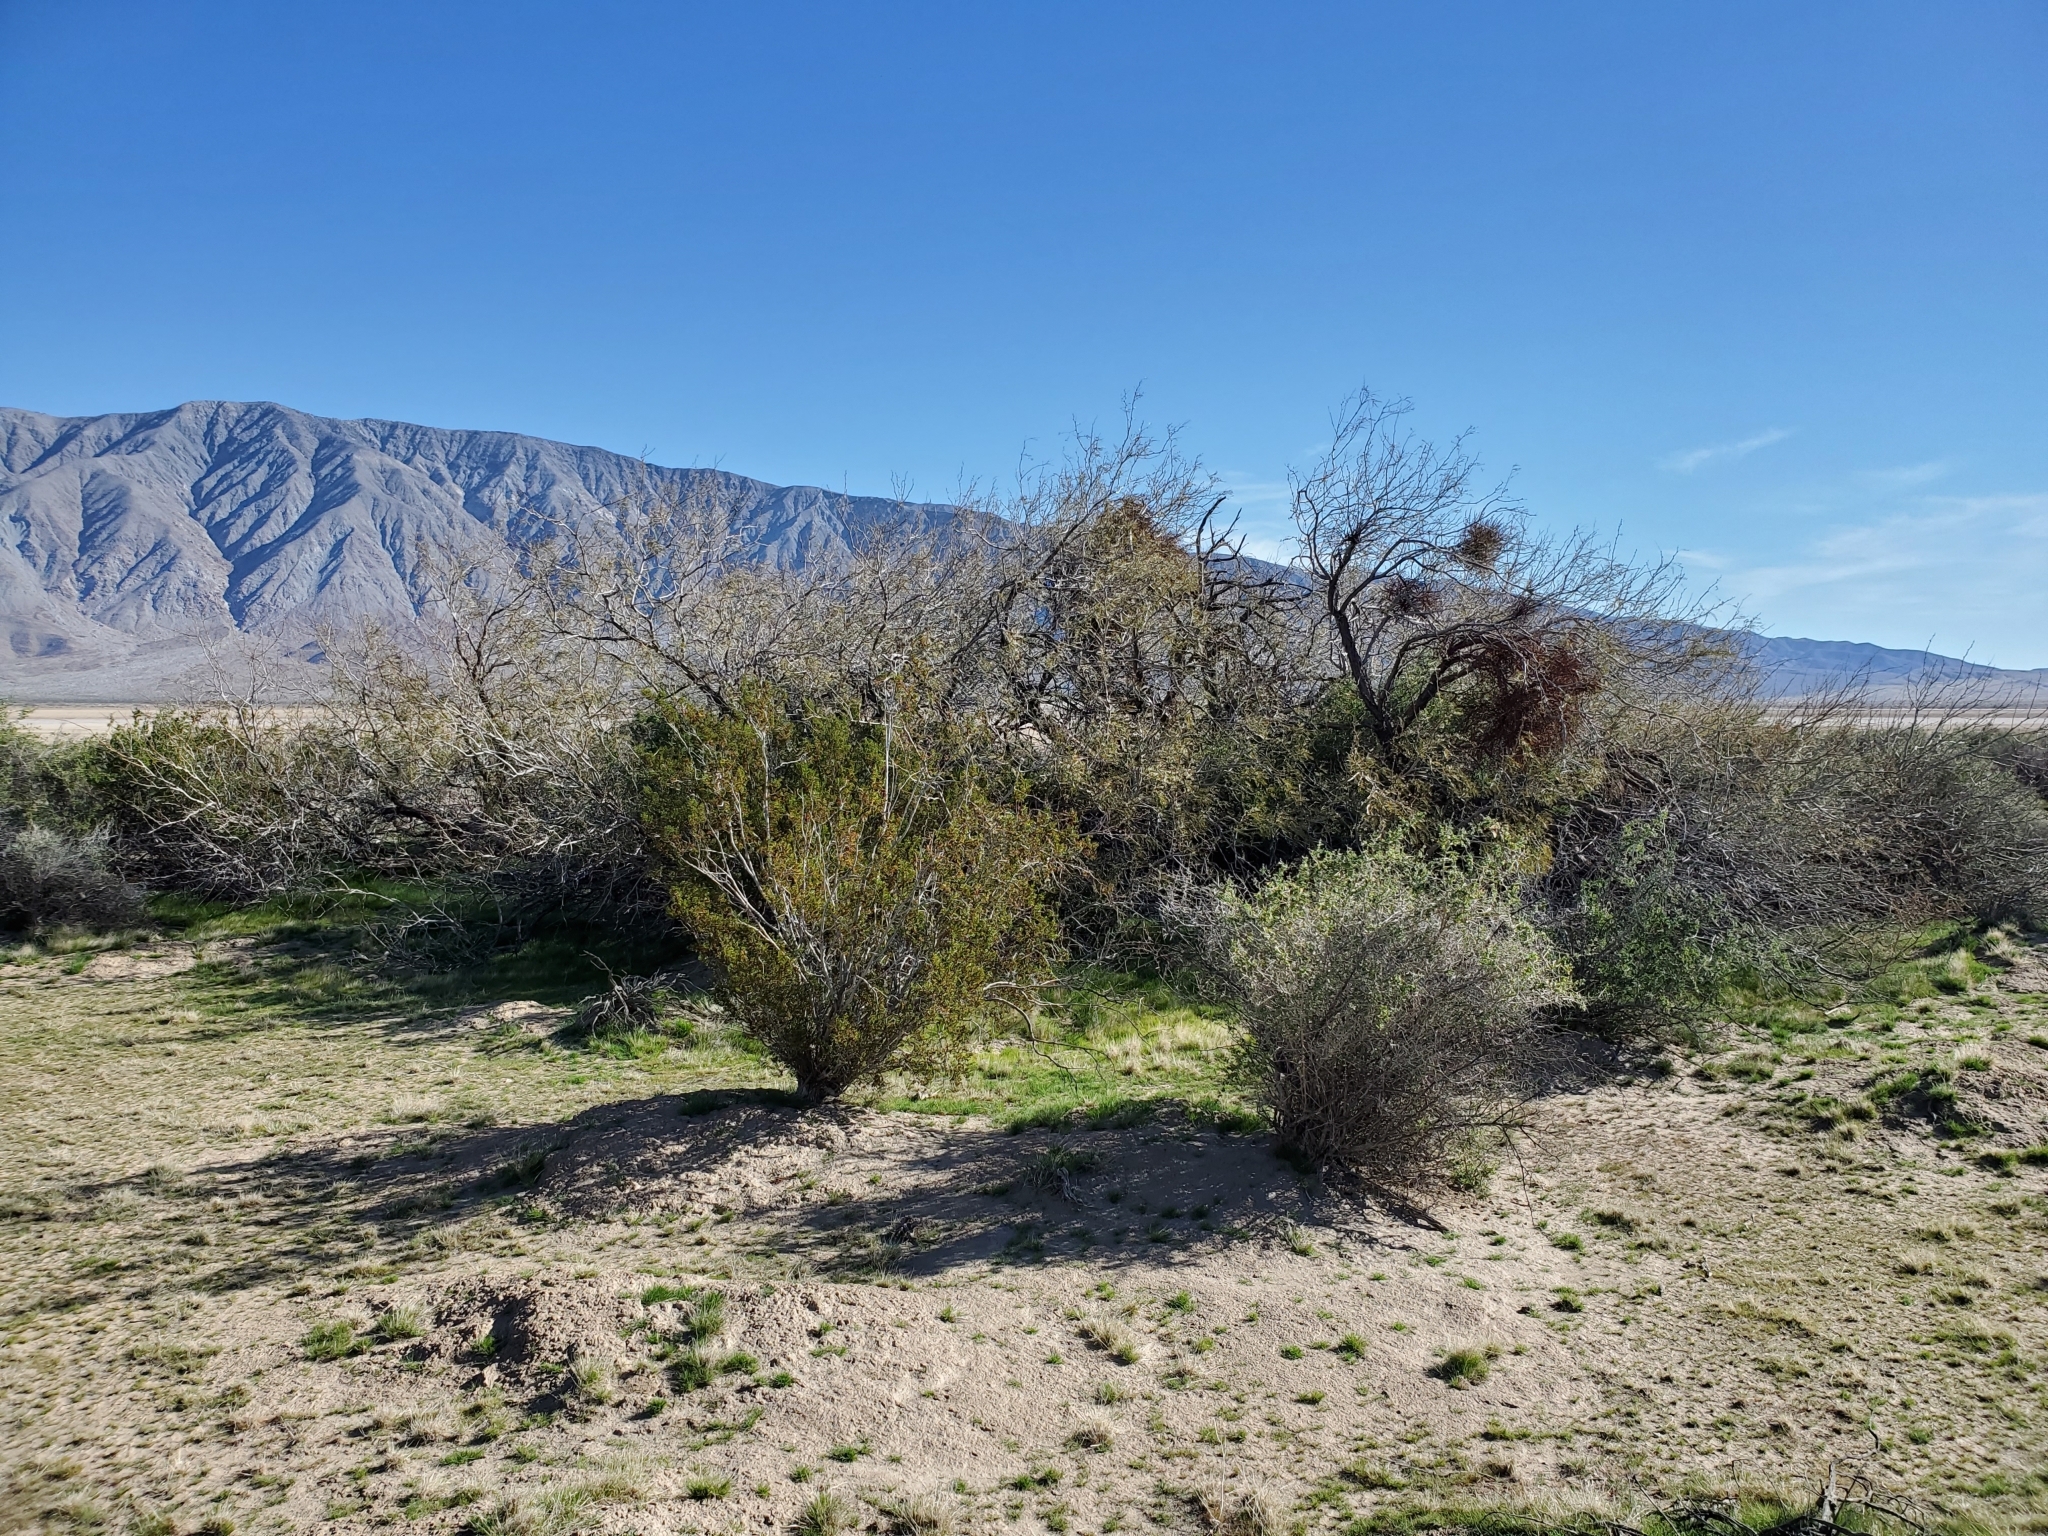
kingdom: Plantae
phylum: Tracheophyta
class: Magnoliopsida
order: Fabales
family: Fabaceae
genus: Prosopis
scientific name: Prosopis pubescens
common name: Screw-bean
